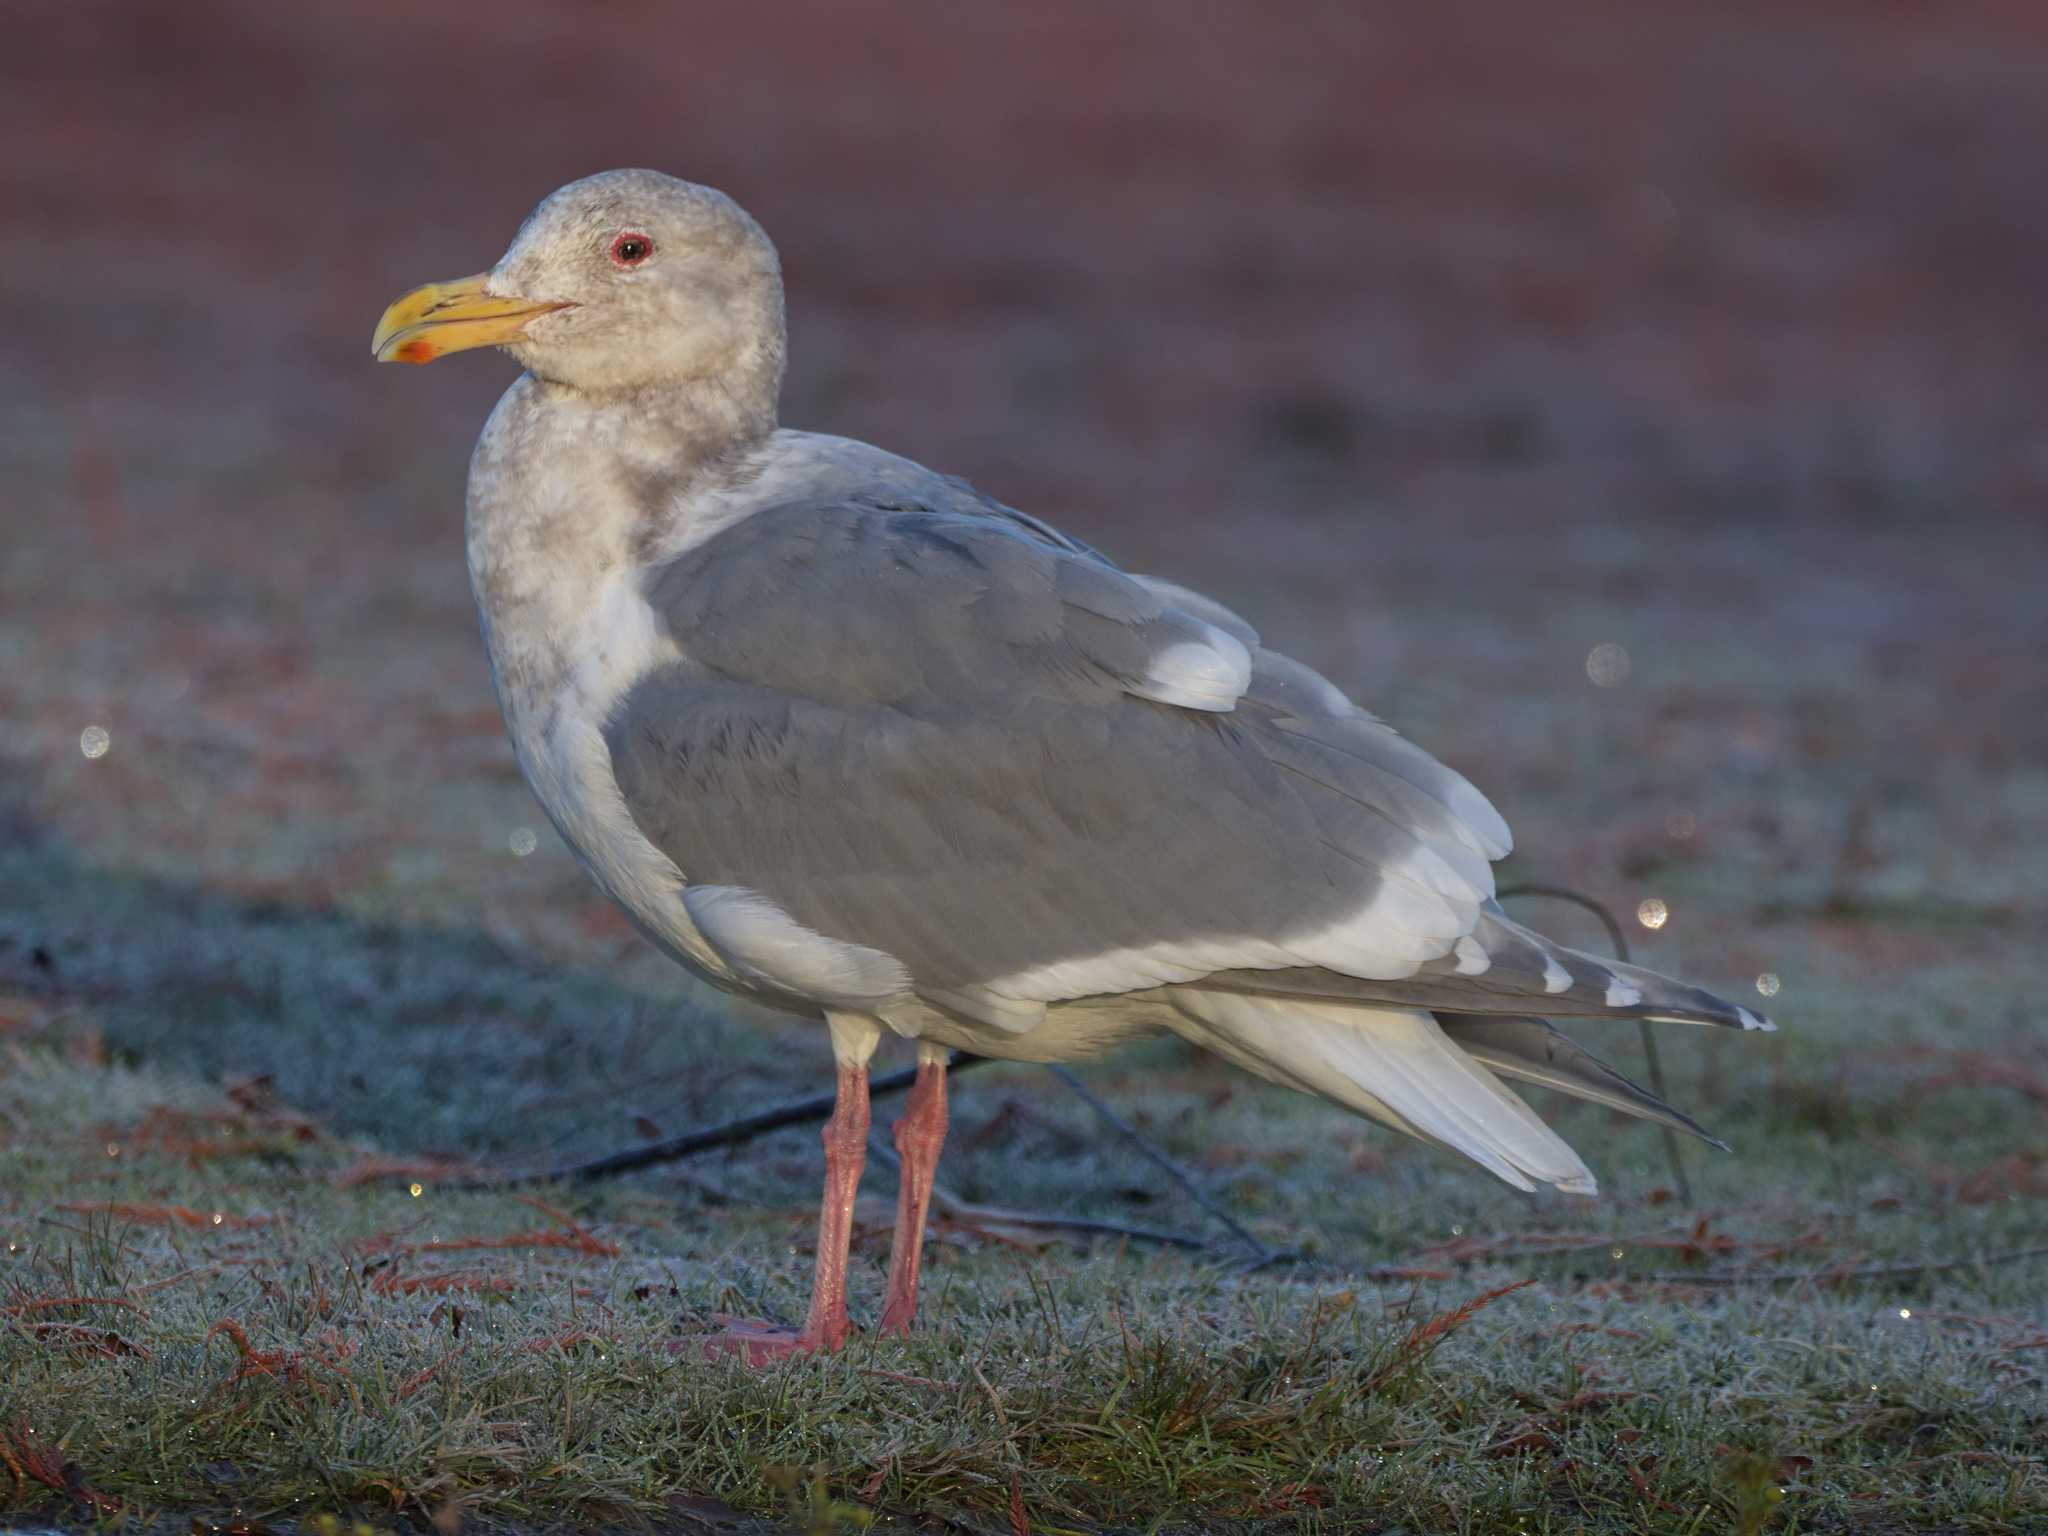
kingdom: Animalia
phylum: Chordata
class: Aves
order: Charadriiformes
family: Laridae
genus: Larus
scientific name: Larus
